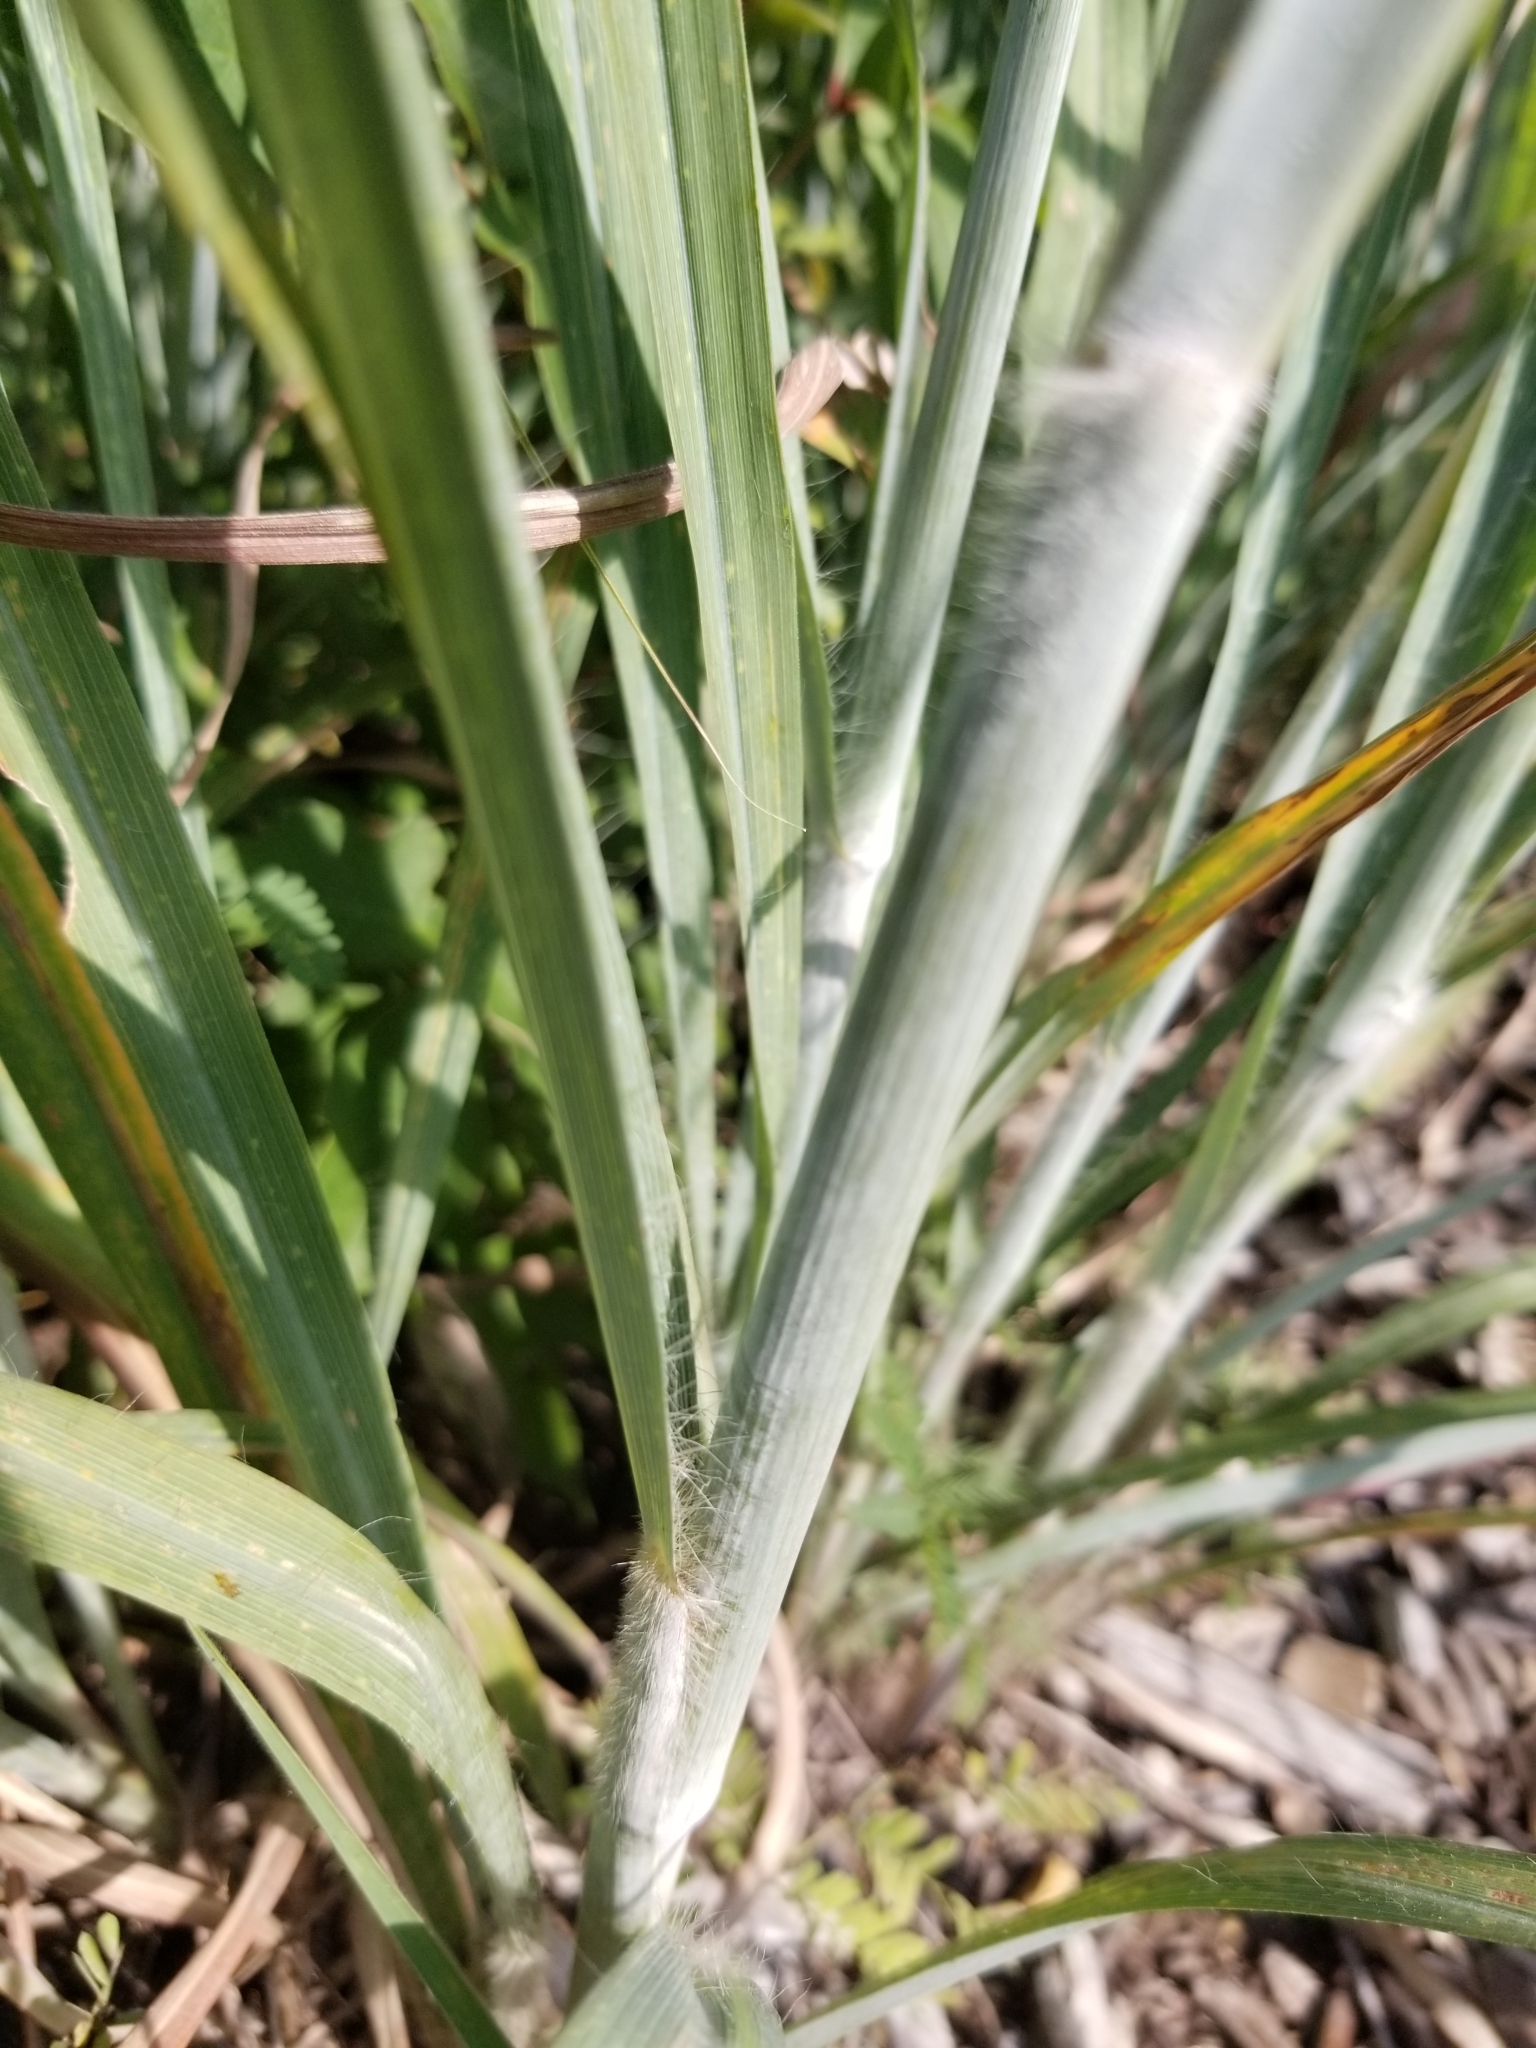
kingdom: Plantae
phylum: Tracheophyta
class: Liliopsida
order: Poales
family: Poaceae
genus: Andropogon
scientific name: Andropogon gerardi
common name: Big bluestem
